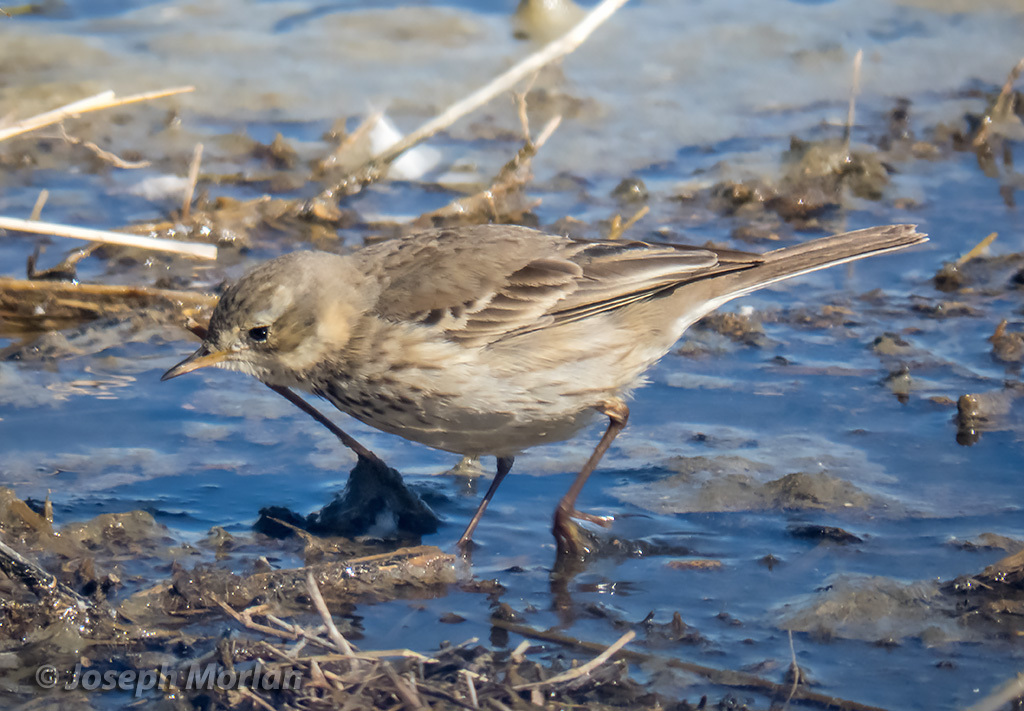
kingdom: Animalia
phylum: Chordata
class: Aves
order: Passeriformes
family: Motacillidae
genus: Anthus
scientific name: Anthus rubescens
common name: Buff-bellied pipit
